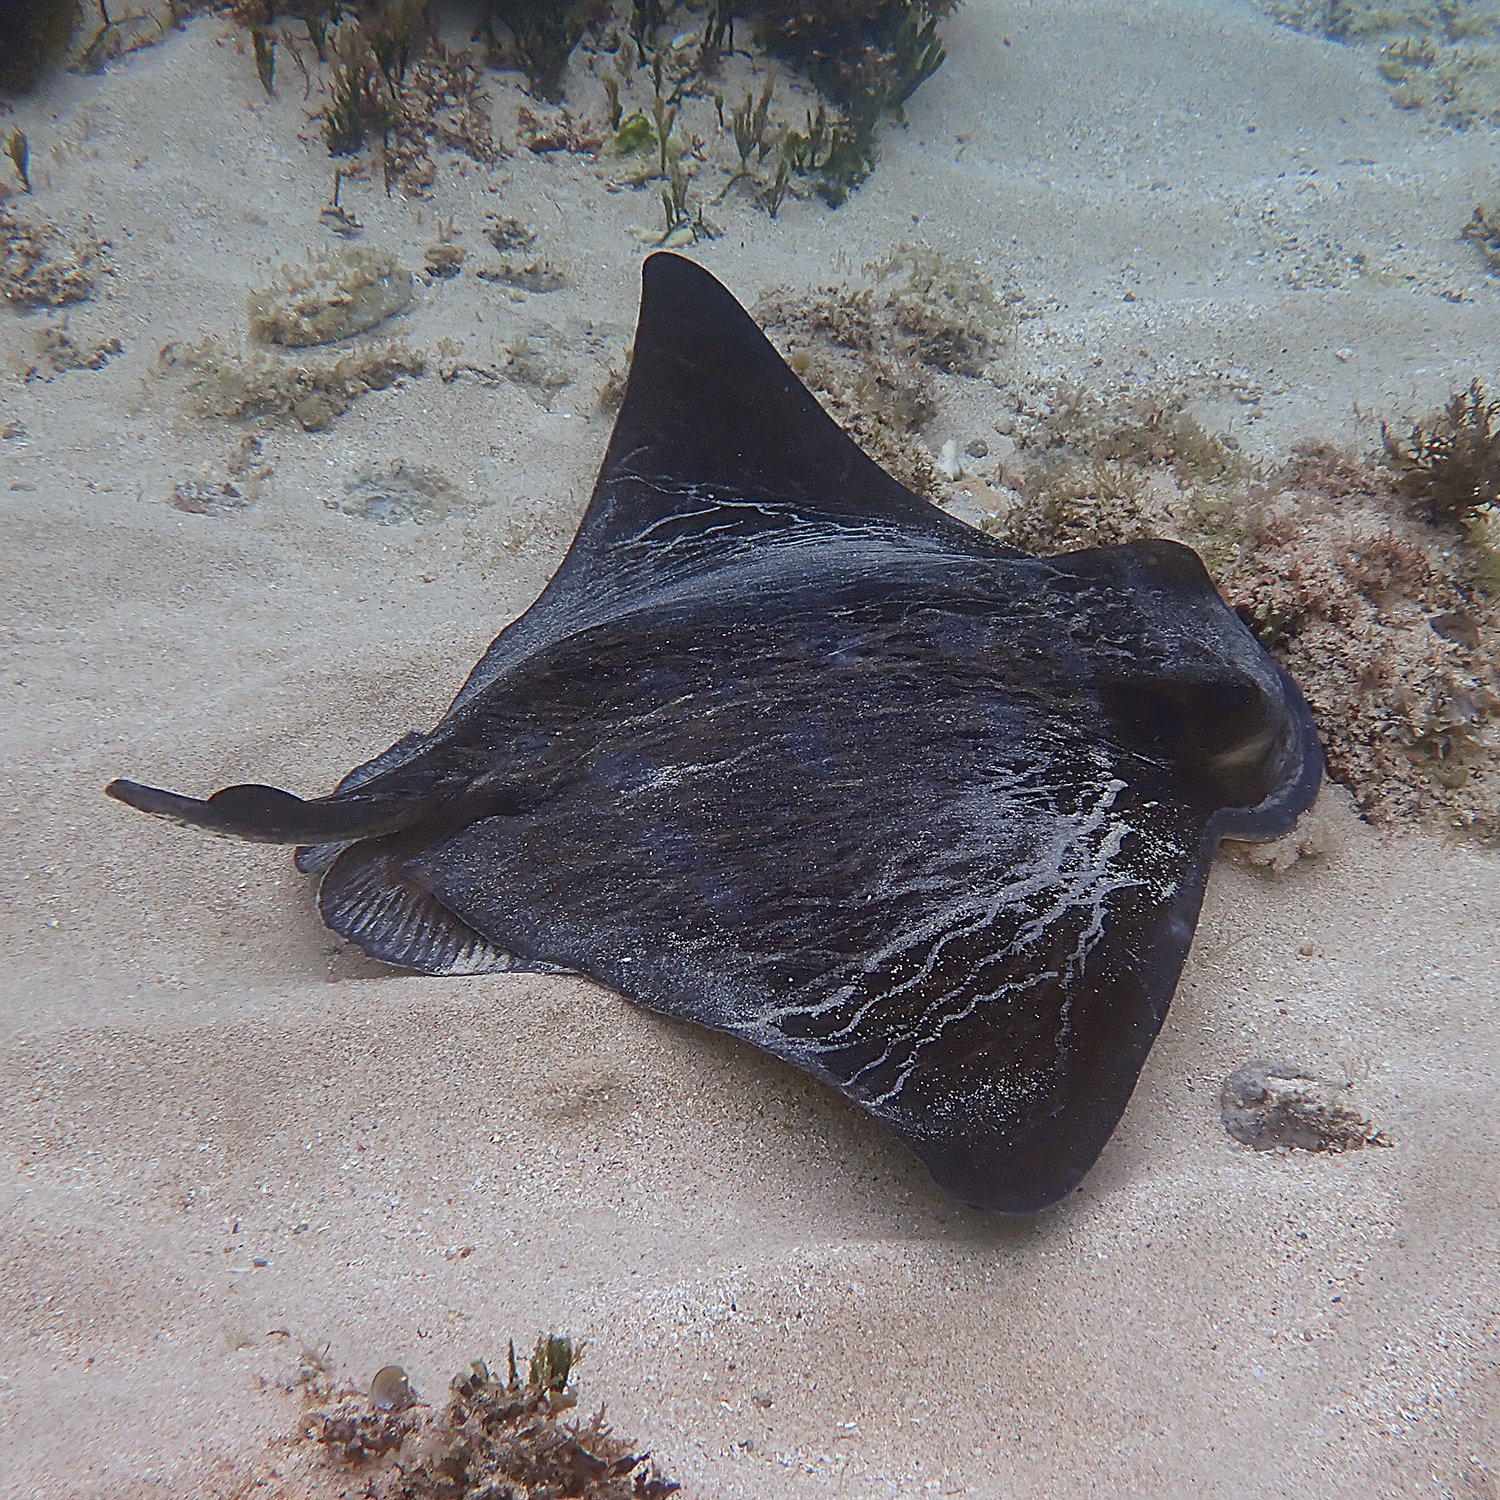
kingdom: Animalia
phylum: Chordata
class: Elasmobranchii
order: Myliobatiformes
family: Myliobatidae
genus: Myliobatis
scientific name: Myliobatis tenuicaudatus
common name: Eagle ray
